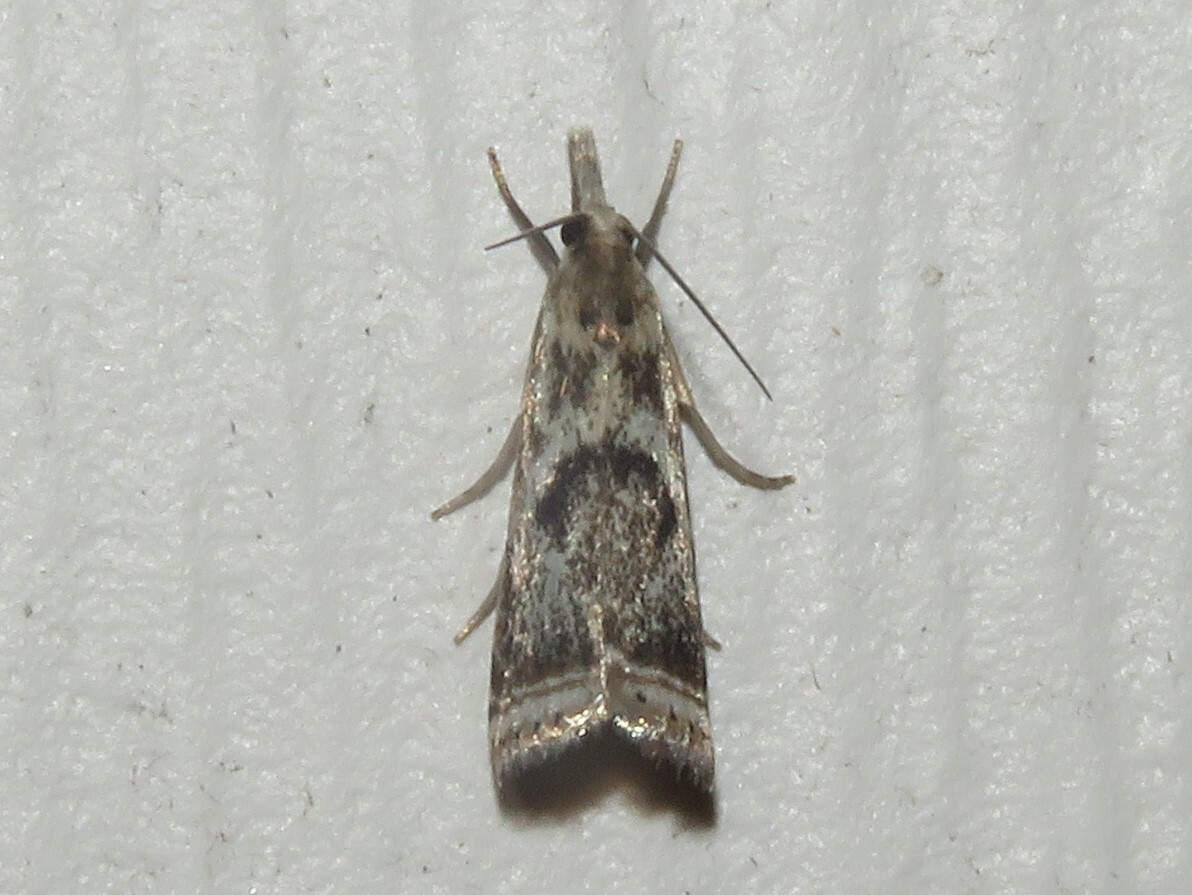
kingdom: Animalia
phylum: Arthropoda
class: Insecta
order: Lepidoptera
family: Crambidae
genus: Microcrambus
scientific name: Microcrambus elegans
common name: Elegant grass-veneer
